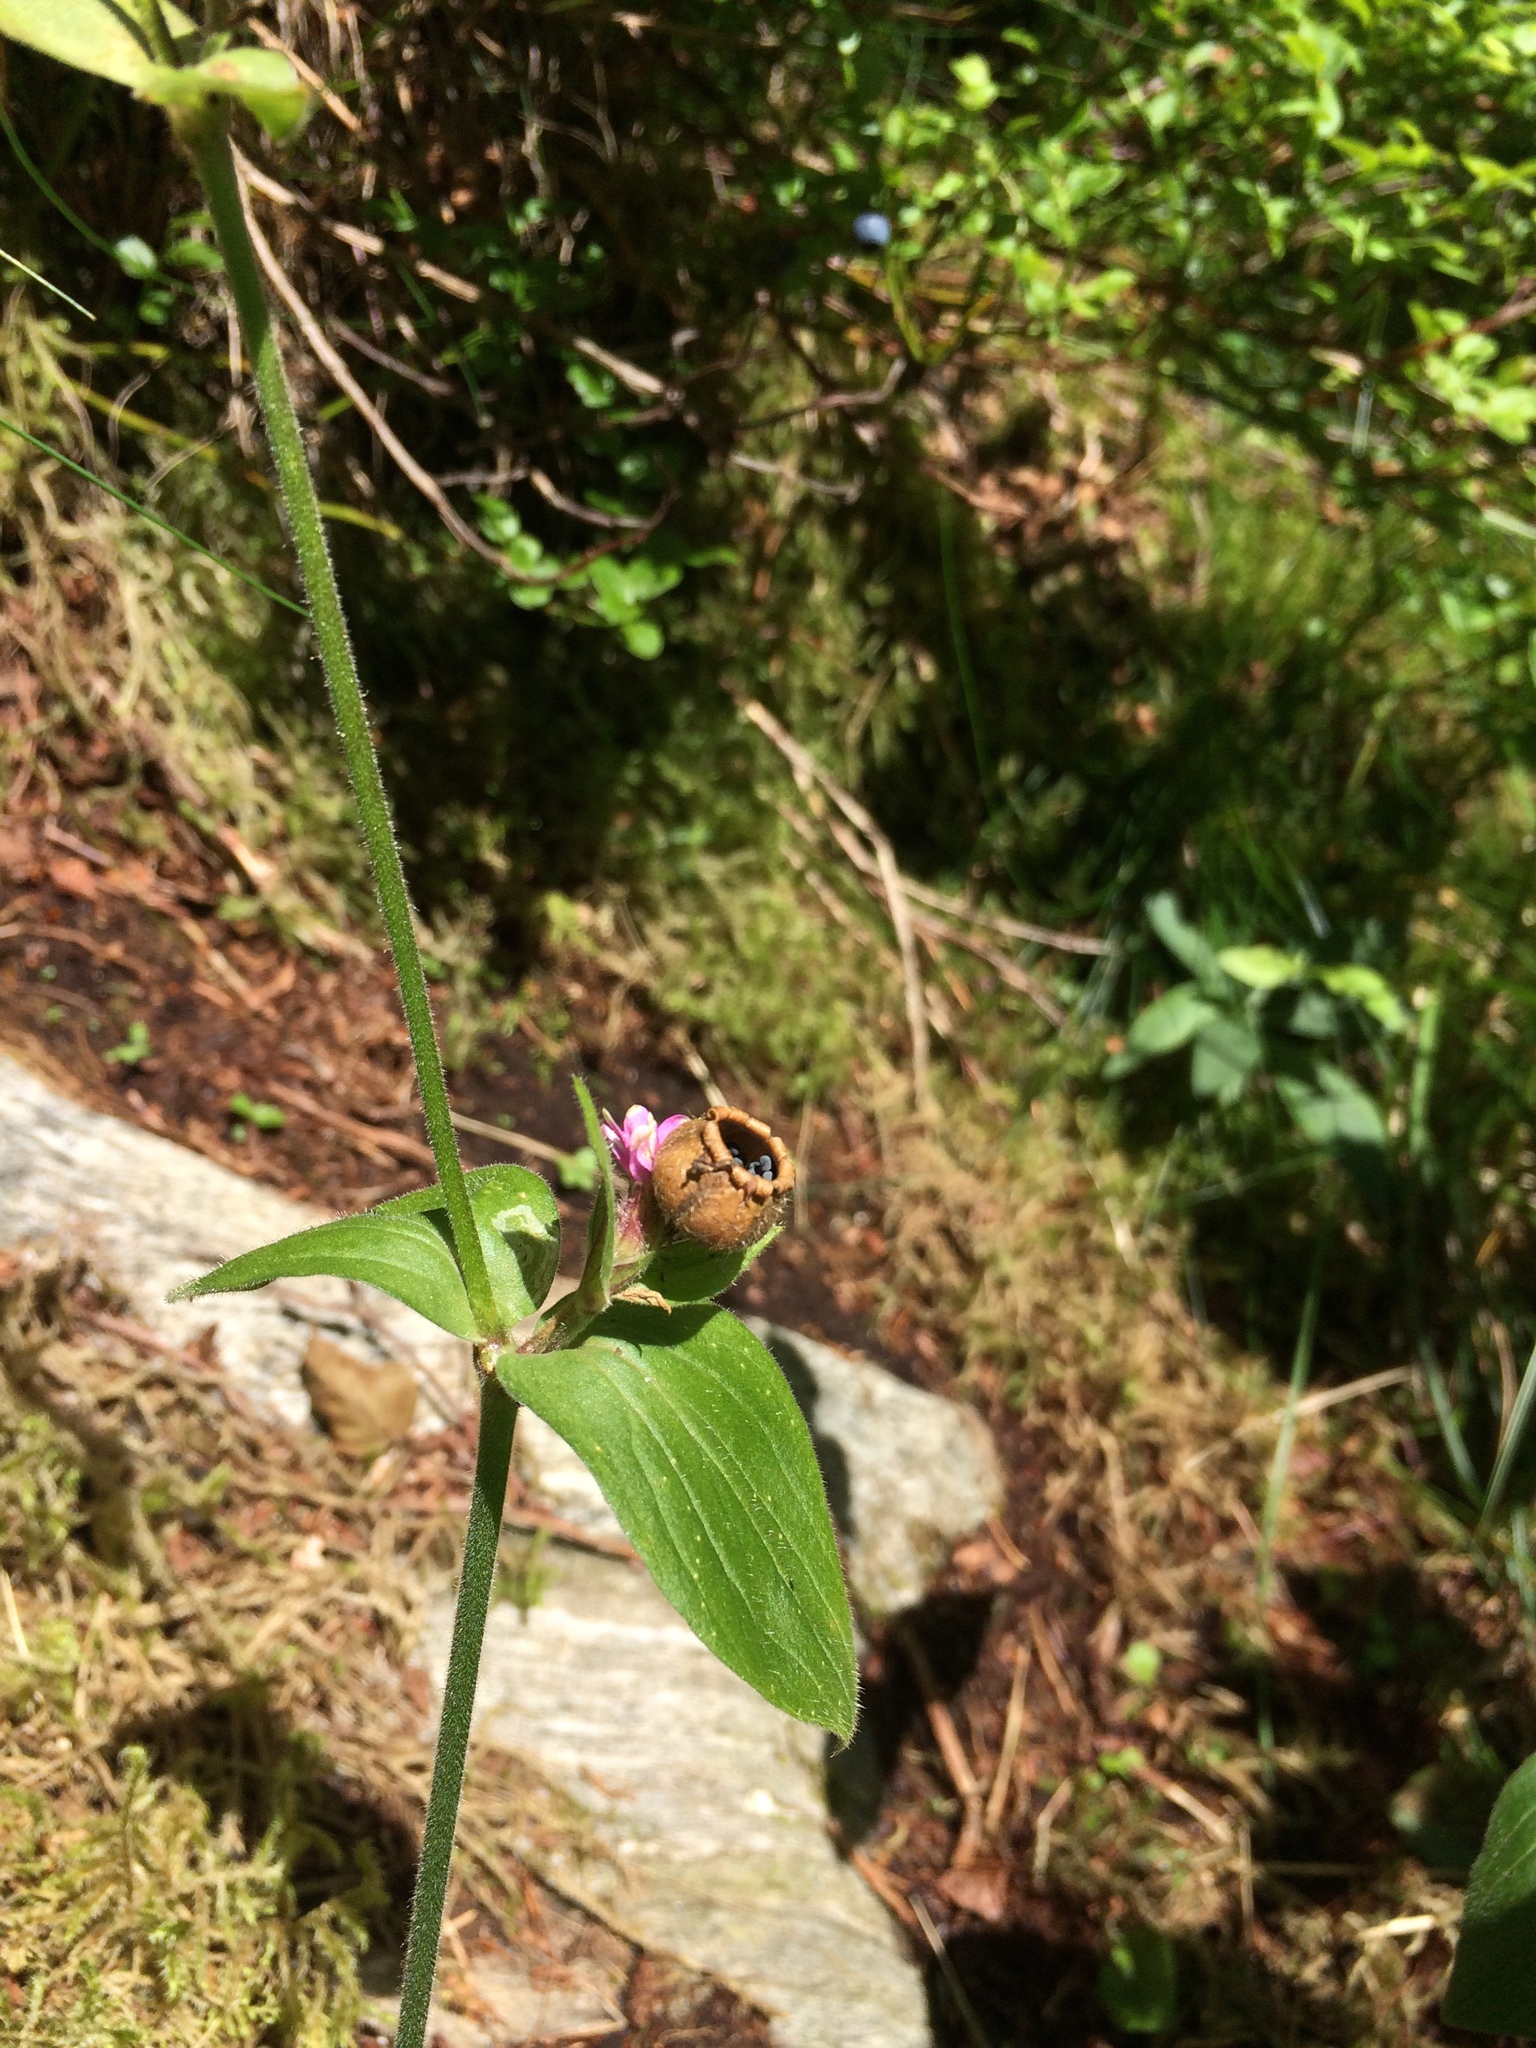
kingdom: Plantae
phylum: Tracheophyta
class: Magnoliopsida
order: Caryophyllales
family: Caryophyllaceae
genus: Silene
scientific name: Silene dioica
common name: Red campion
